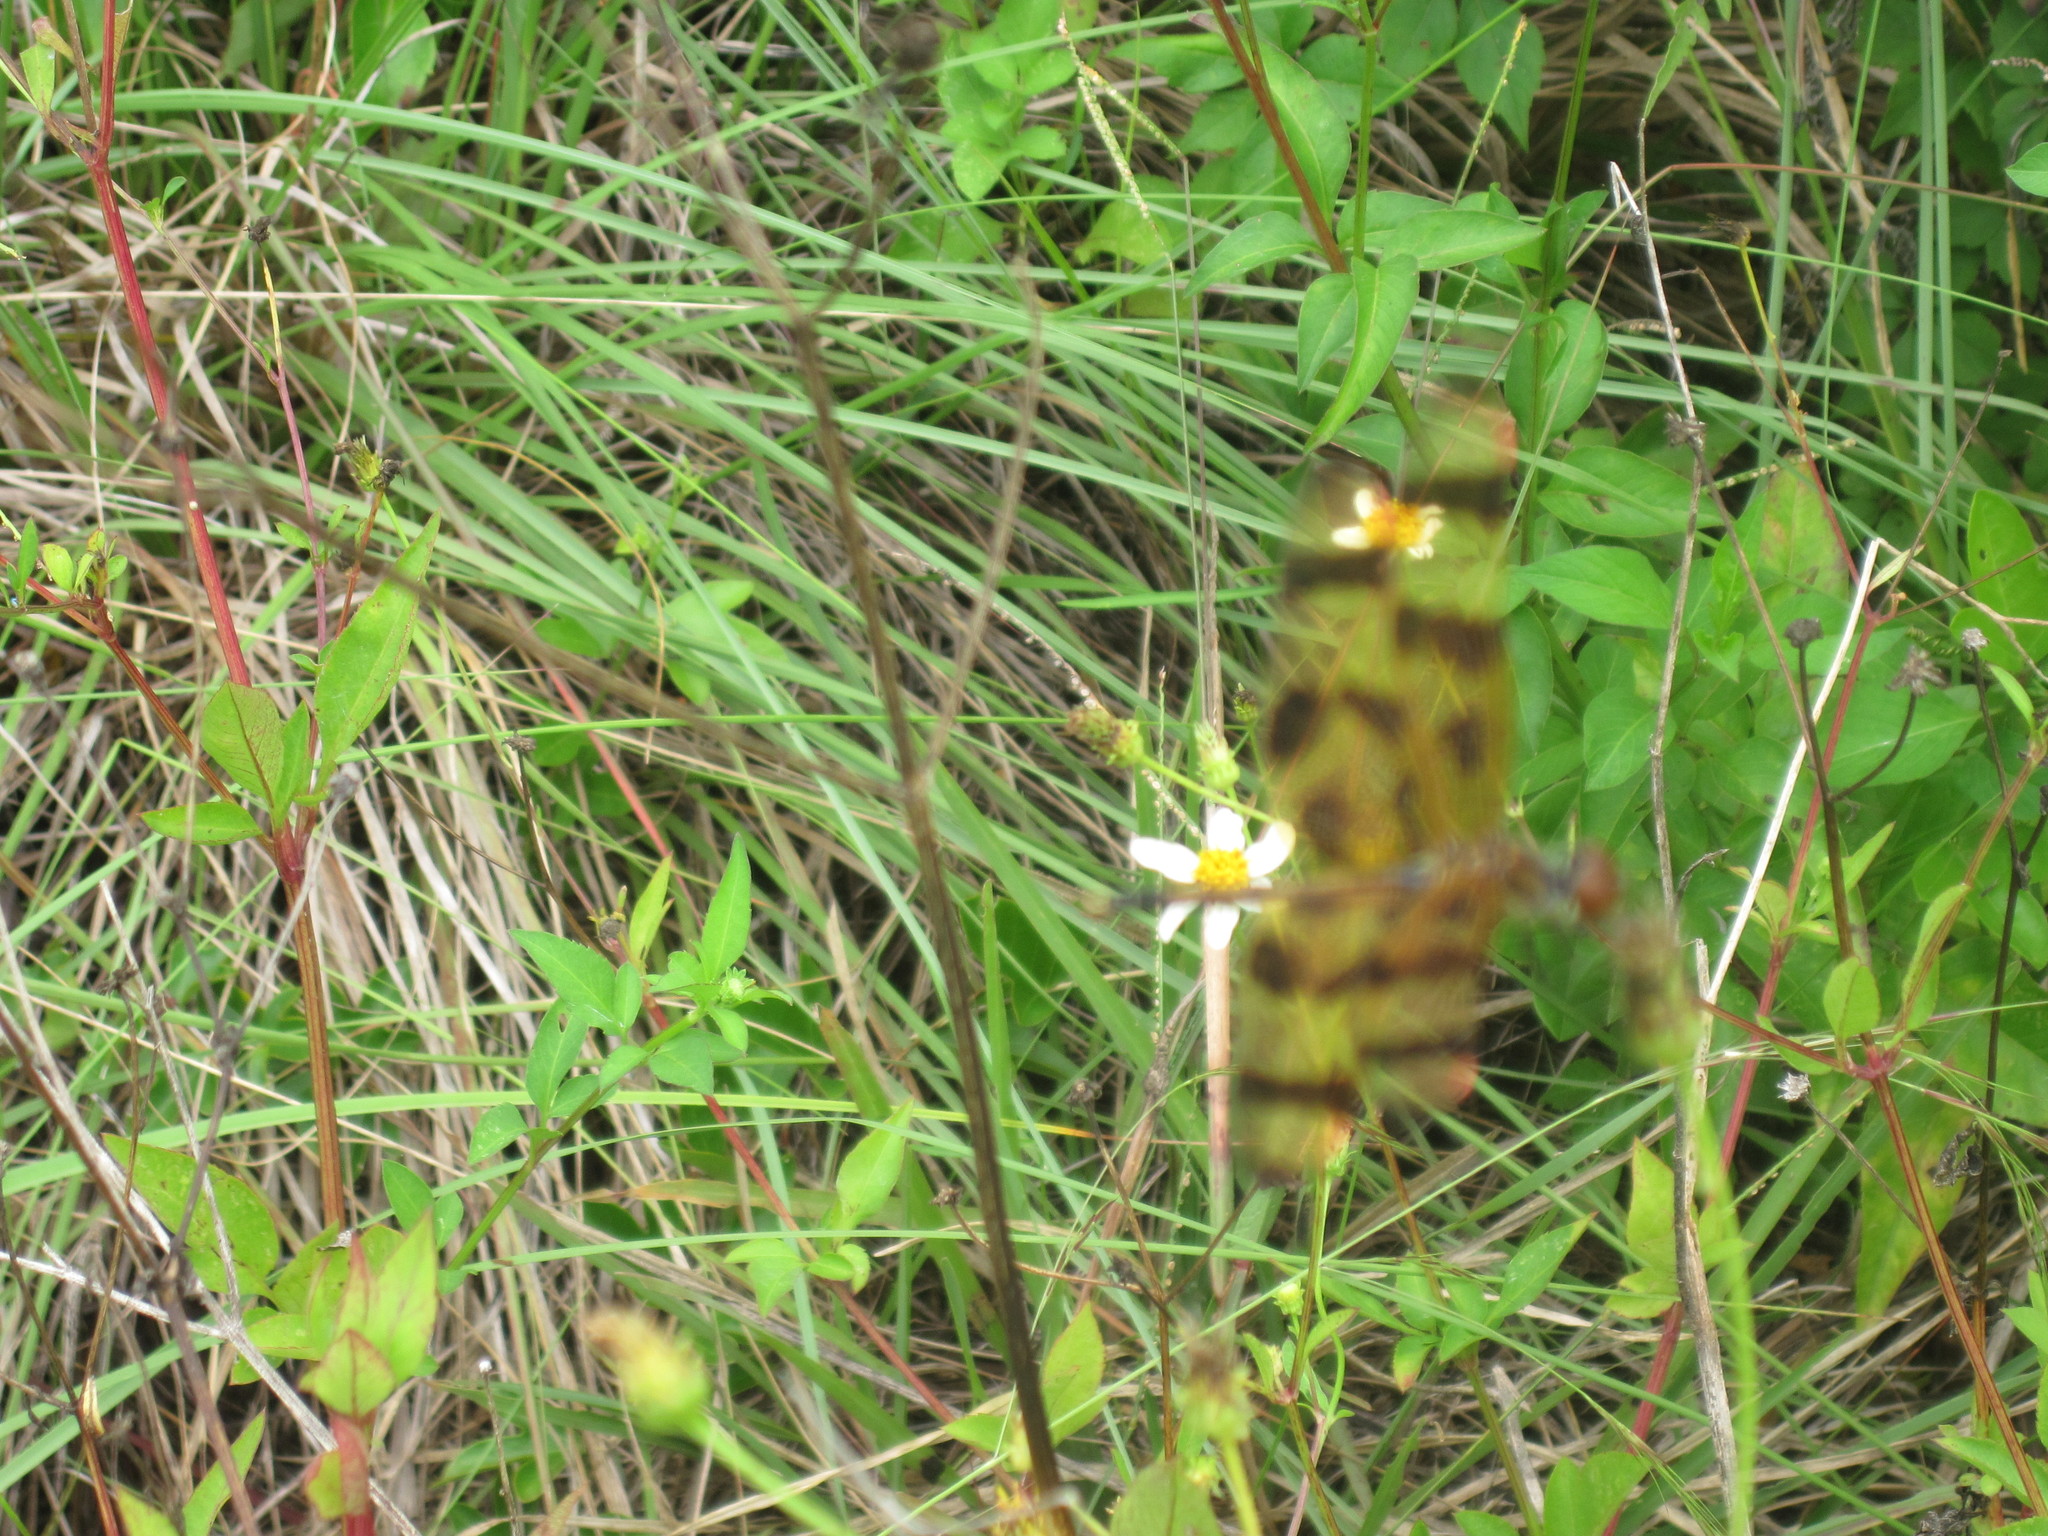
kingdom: Animalia
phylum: Arthropoda
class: Insecta
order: Odonata
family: Libellulidae
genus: Celithemis
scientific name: Celithemis eponina
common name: Halloween pennant
